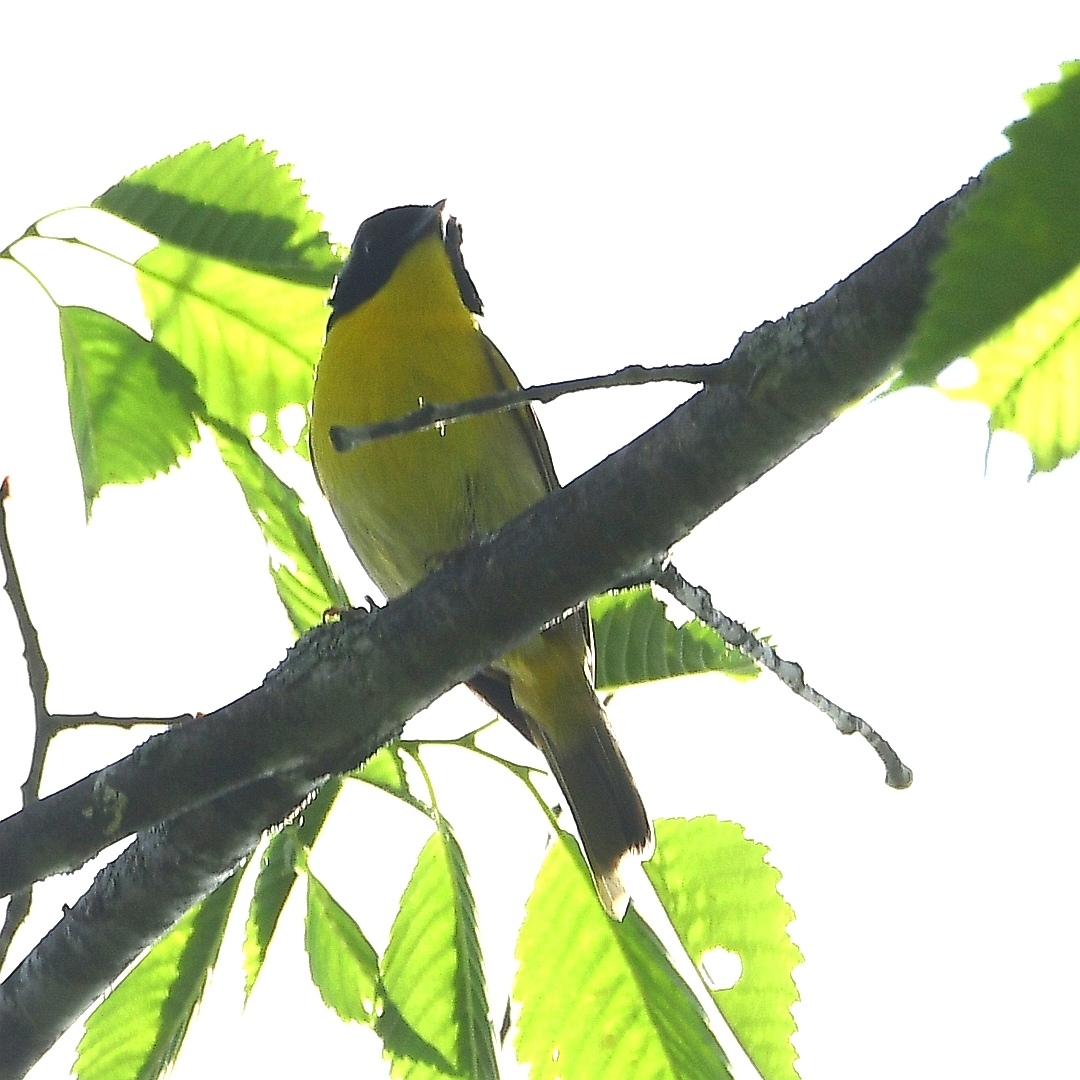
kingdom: Animalia
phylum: Chordata
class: Aves
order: Passeriformes
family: Parulidae
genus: Geothlypis
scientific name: Geothlypis trichas
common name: Common yellowthroat
